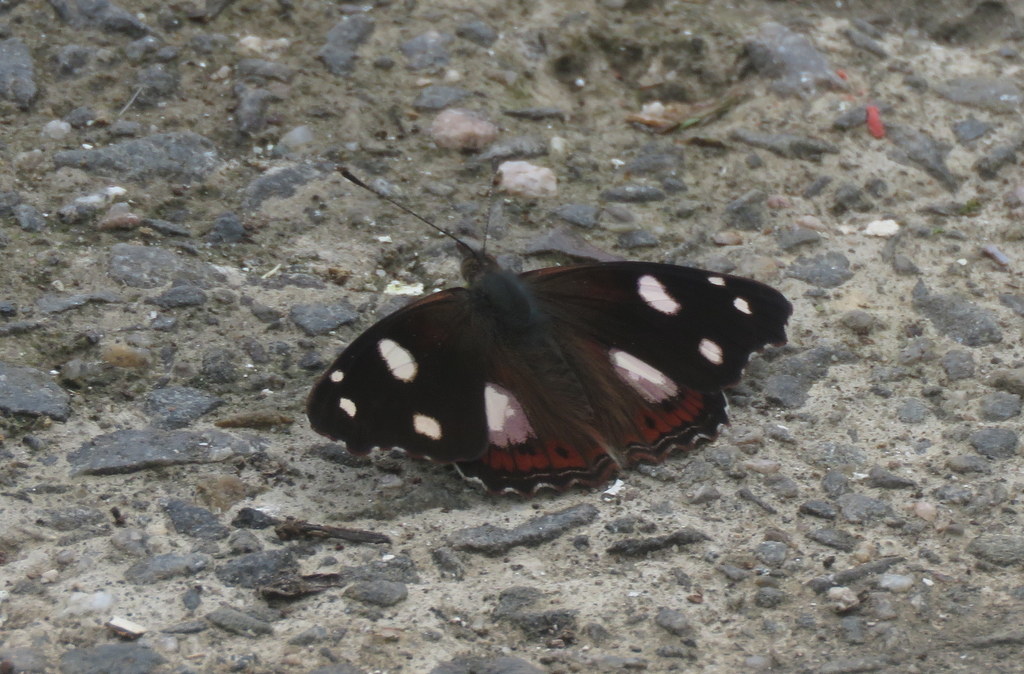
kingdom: Animalia
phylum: Arthropoda
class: Insecta
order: Lepidoptera
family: Nymphalidae
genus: Cybdelis
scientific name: Cybdelis
